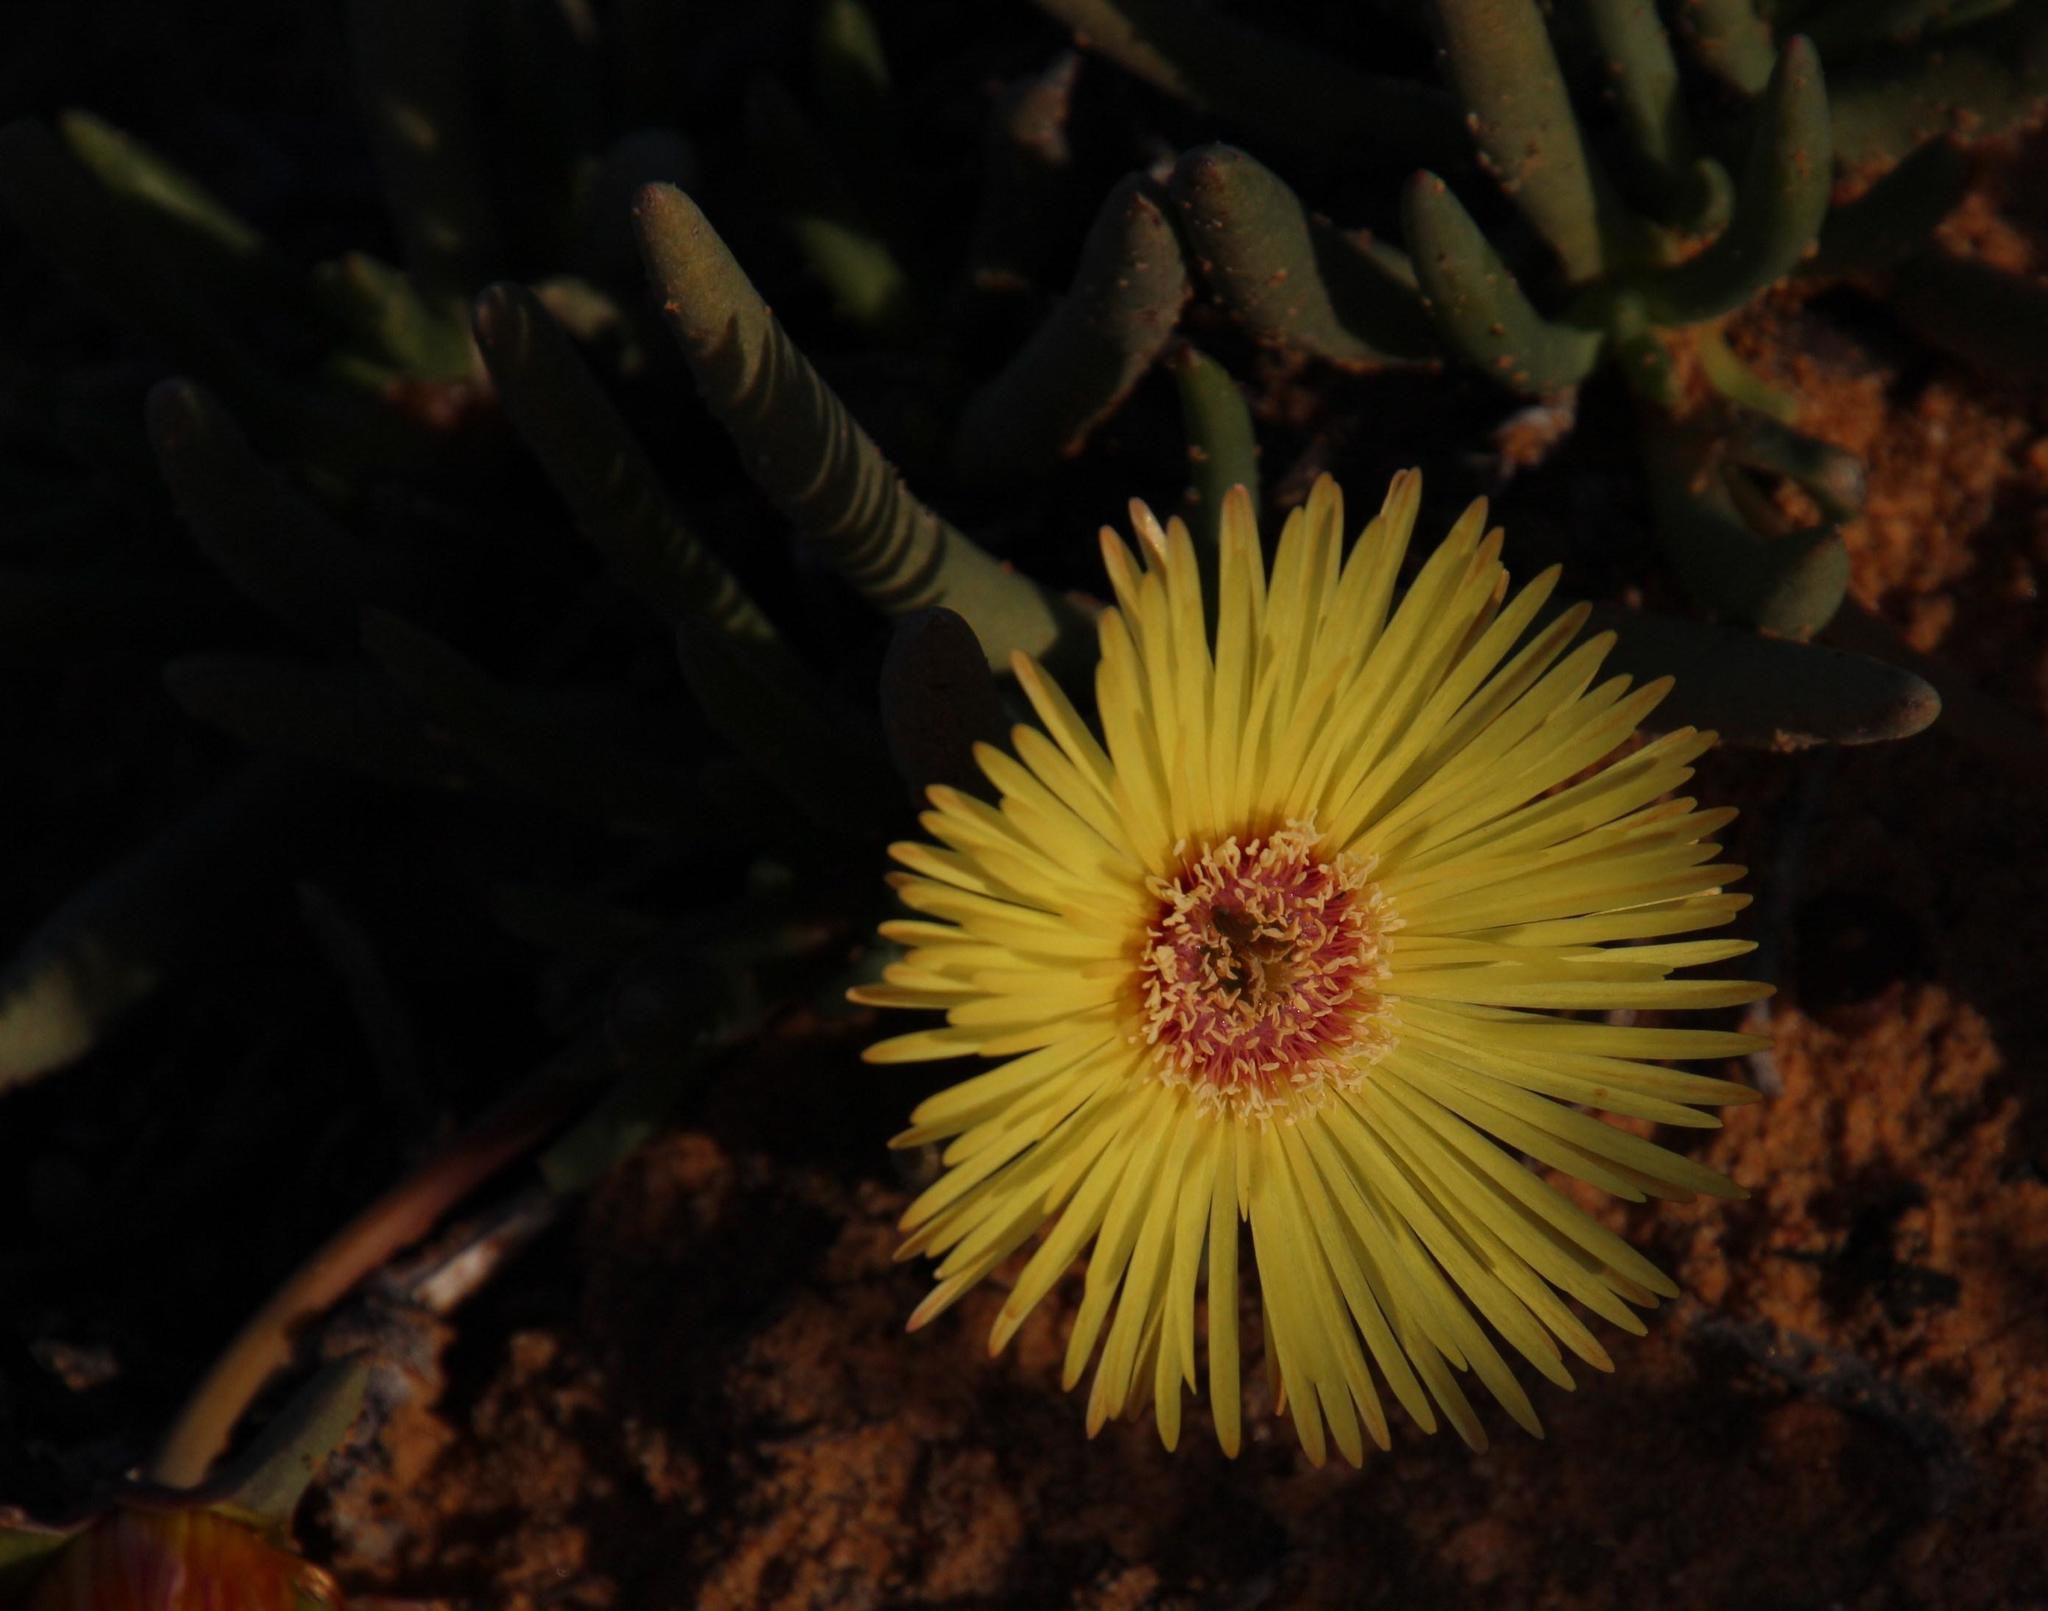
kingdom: Plantae
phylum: Tracheophyta
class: Magnoliopsida
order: Caryophyllales
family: Aizoaceae
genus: Cephalophyllum
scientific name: Cephalophyllum tricolorum
